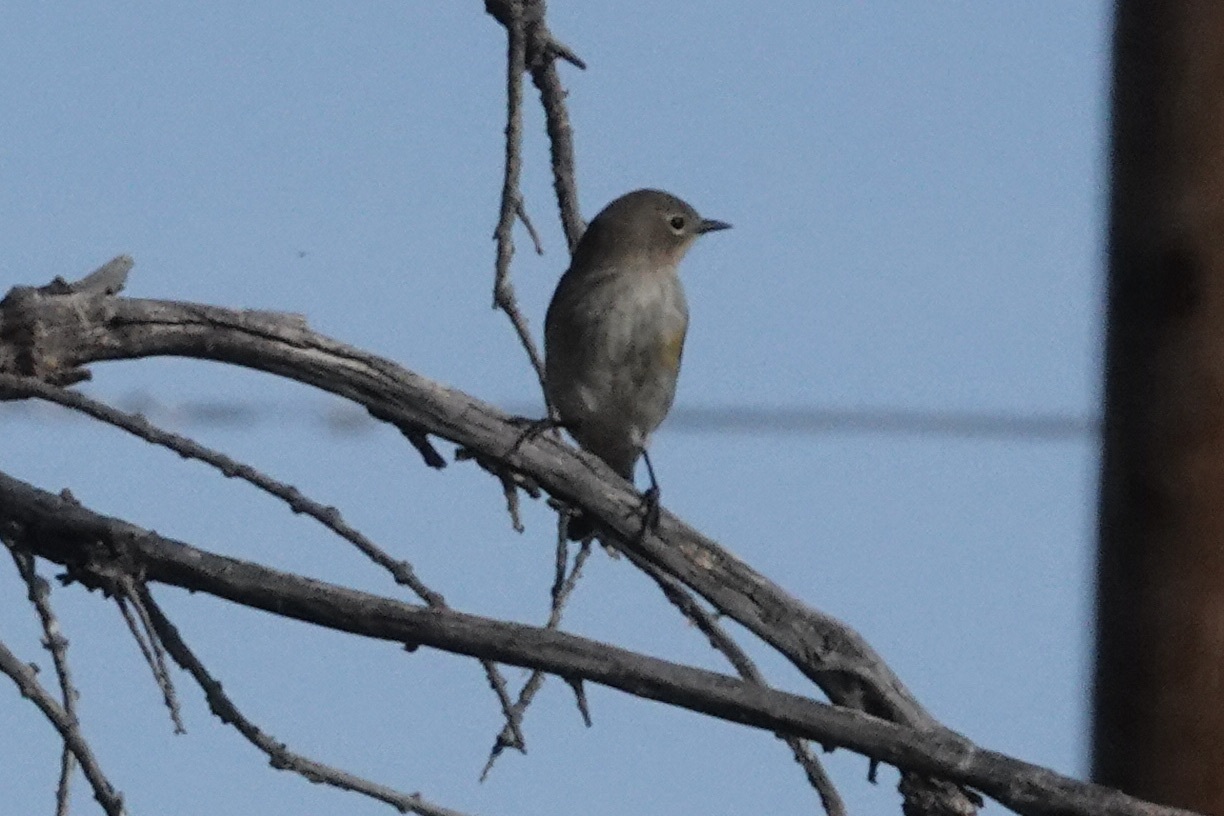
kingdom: Animalia
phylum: Chordata
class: Aves
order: Passeriformes
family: Parulidae
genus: Setophaga
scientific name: Setophaga coronata
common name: Myrtle warbler
